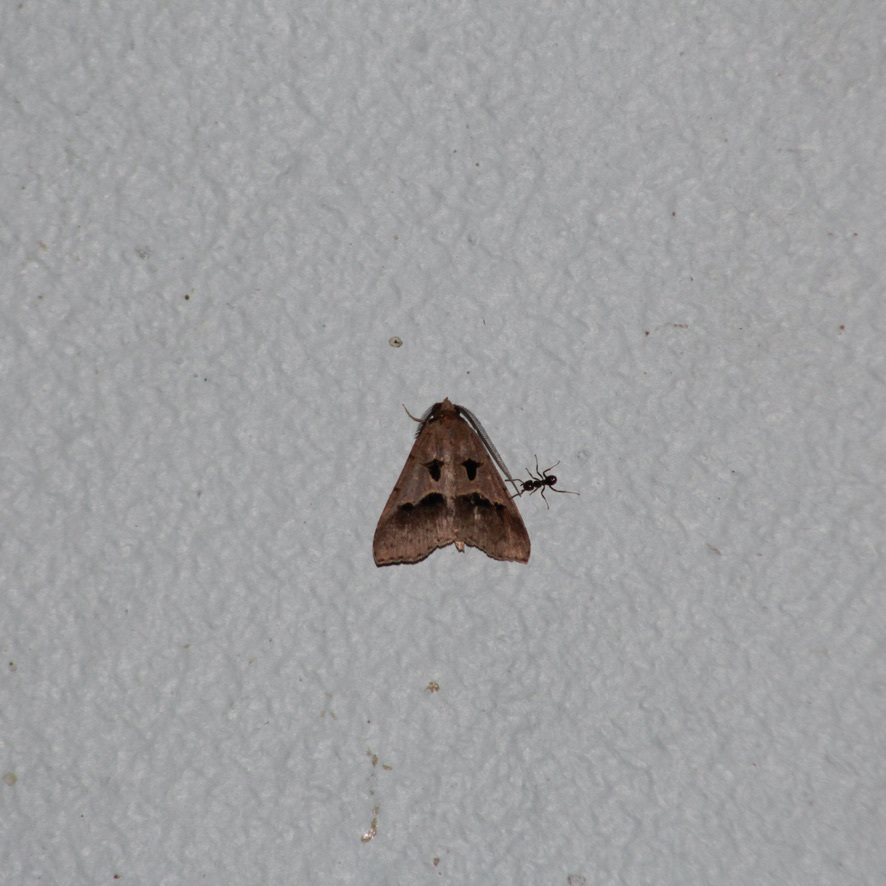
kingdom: Animalia
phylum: Arthropoda
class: Insecta
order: Lepidoptera
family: Erebidae
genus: Baniana
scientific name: Baniana inaequalis
